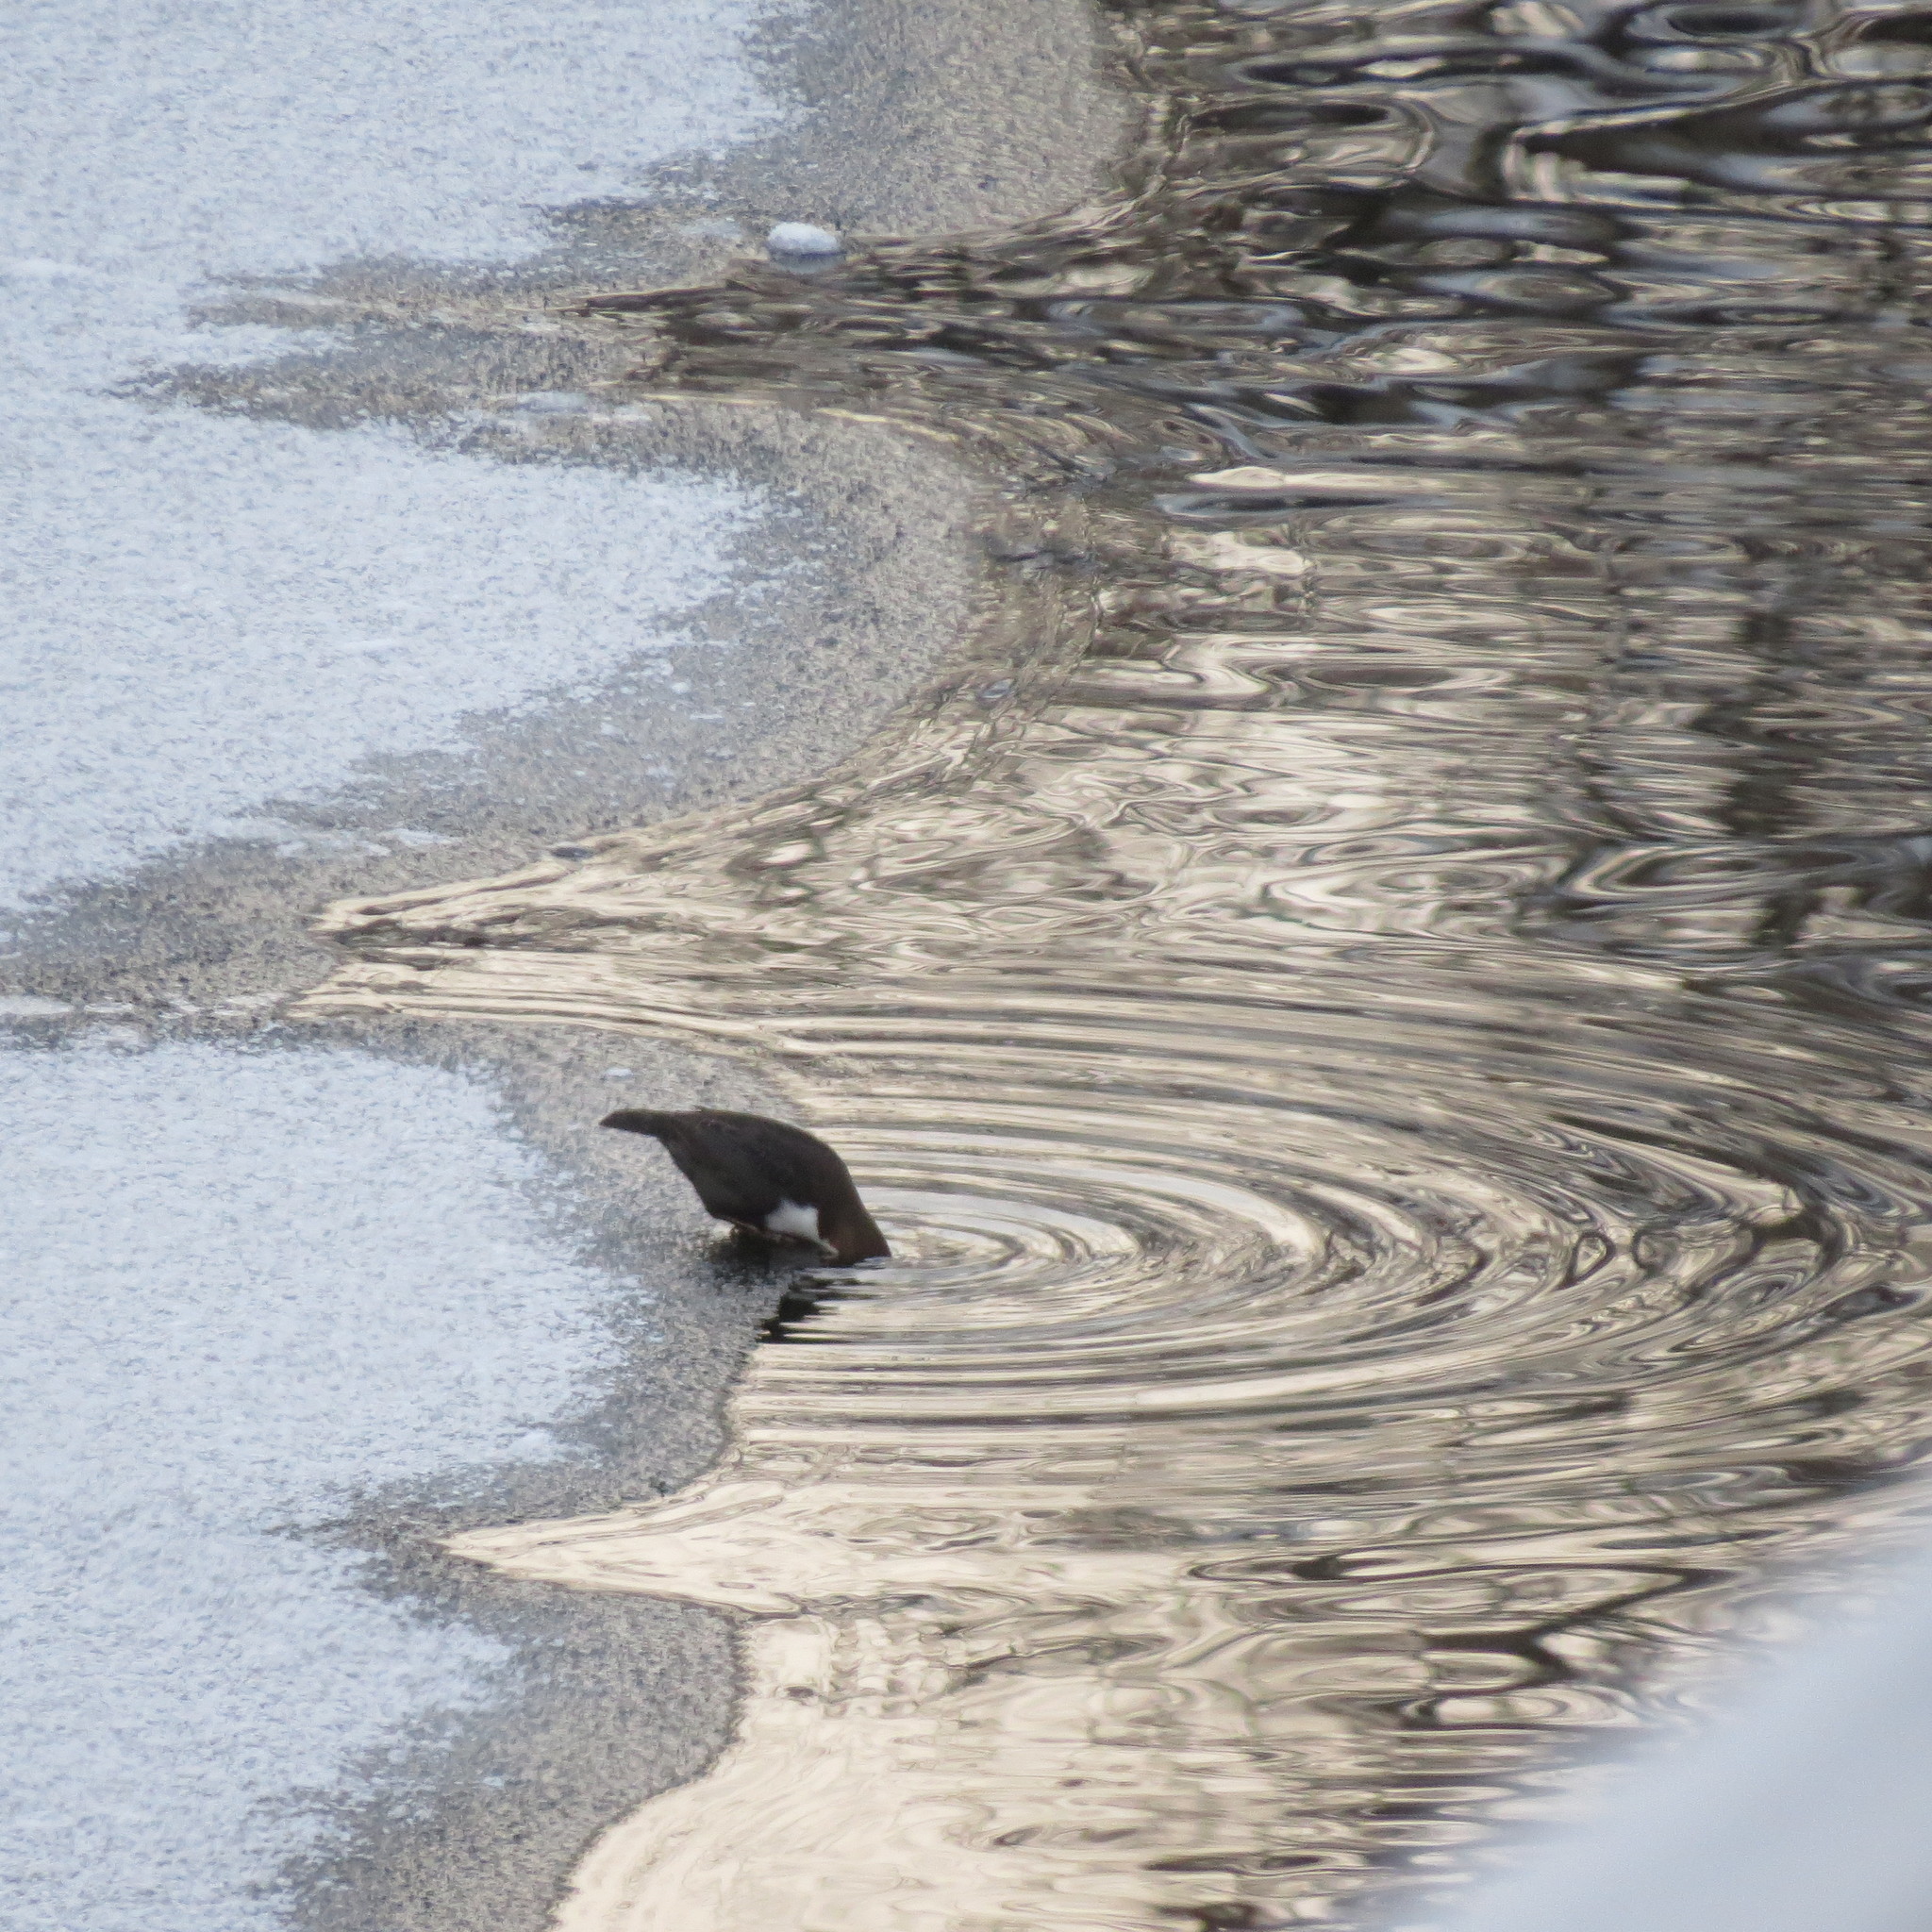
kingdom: Animalia
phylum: Chordata
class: Aves
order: Passeriformes
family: Cinclidae
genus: Cinclus
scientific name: Cinclus cinclus
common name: White-throated dipper
